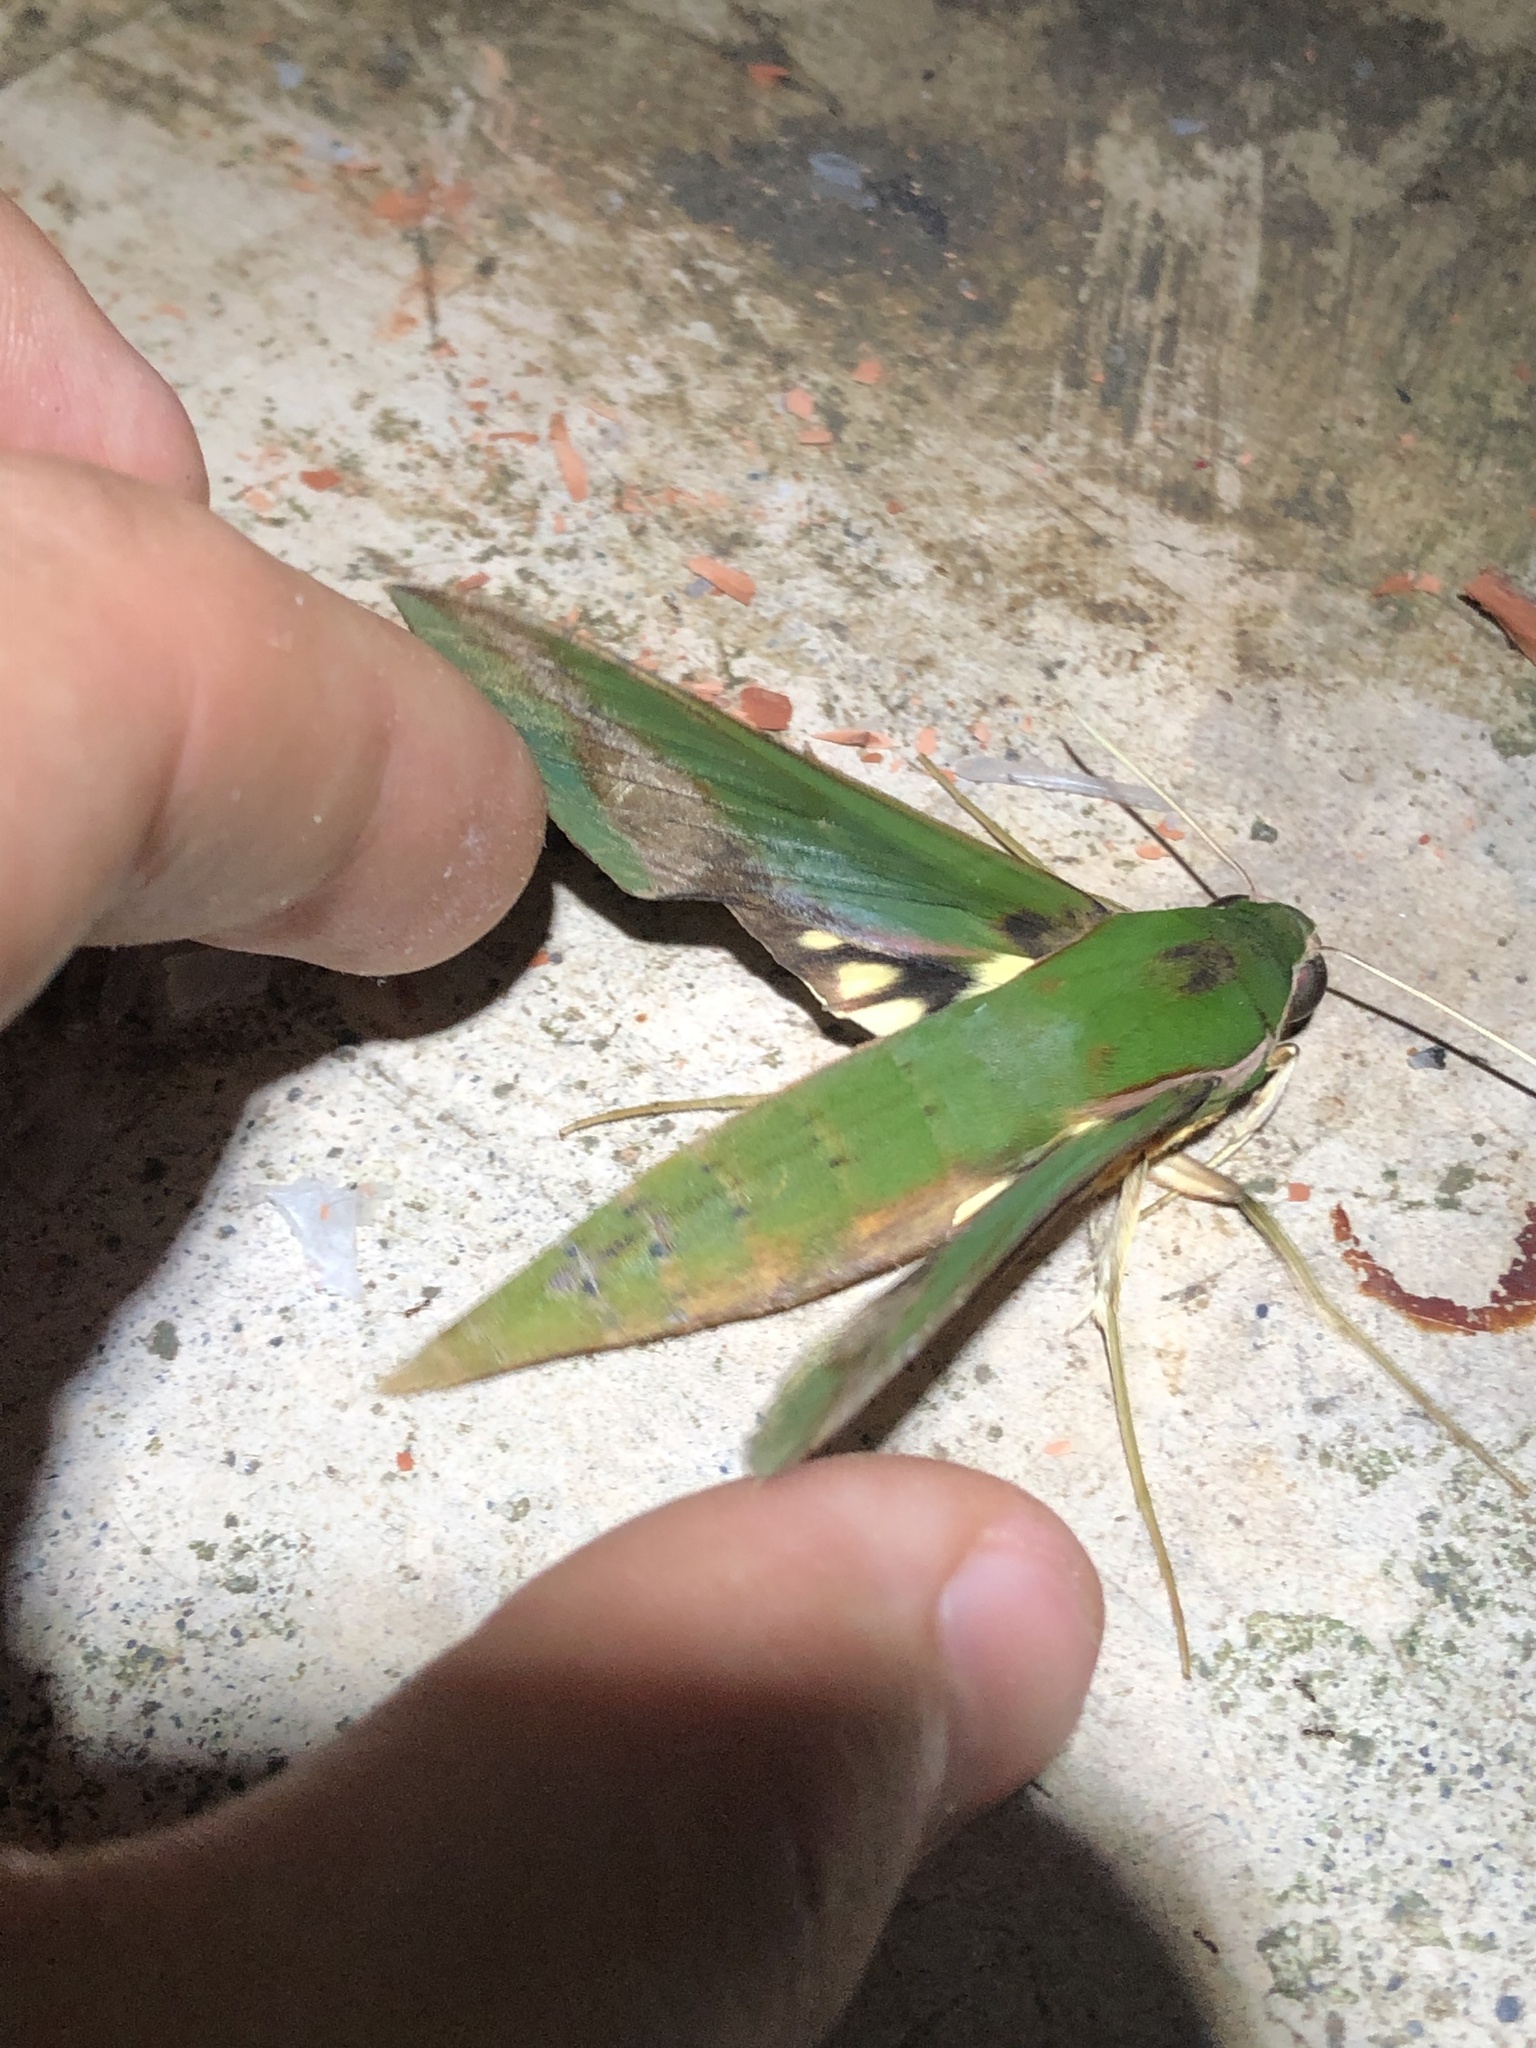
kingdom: Animalia
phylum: Arthropoda
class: Insecta
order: Lepidoptera
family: Sphingidae
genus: Xylophanes
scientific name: Xylophanes chiron
